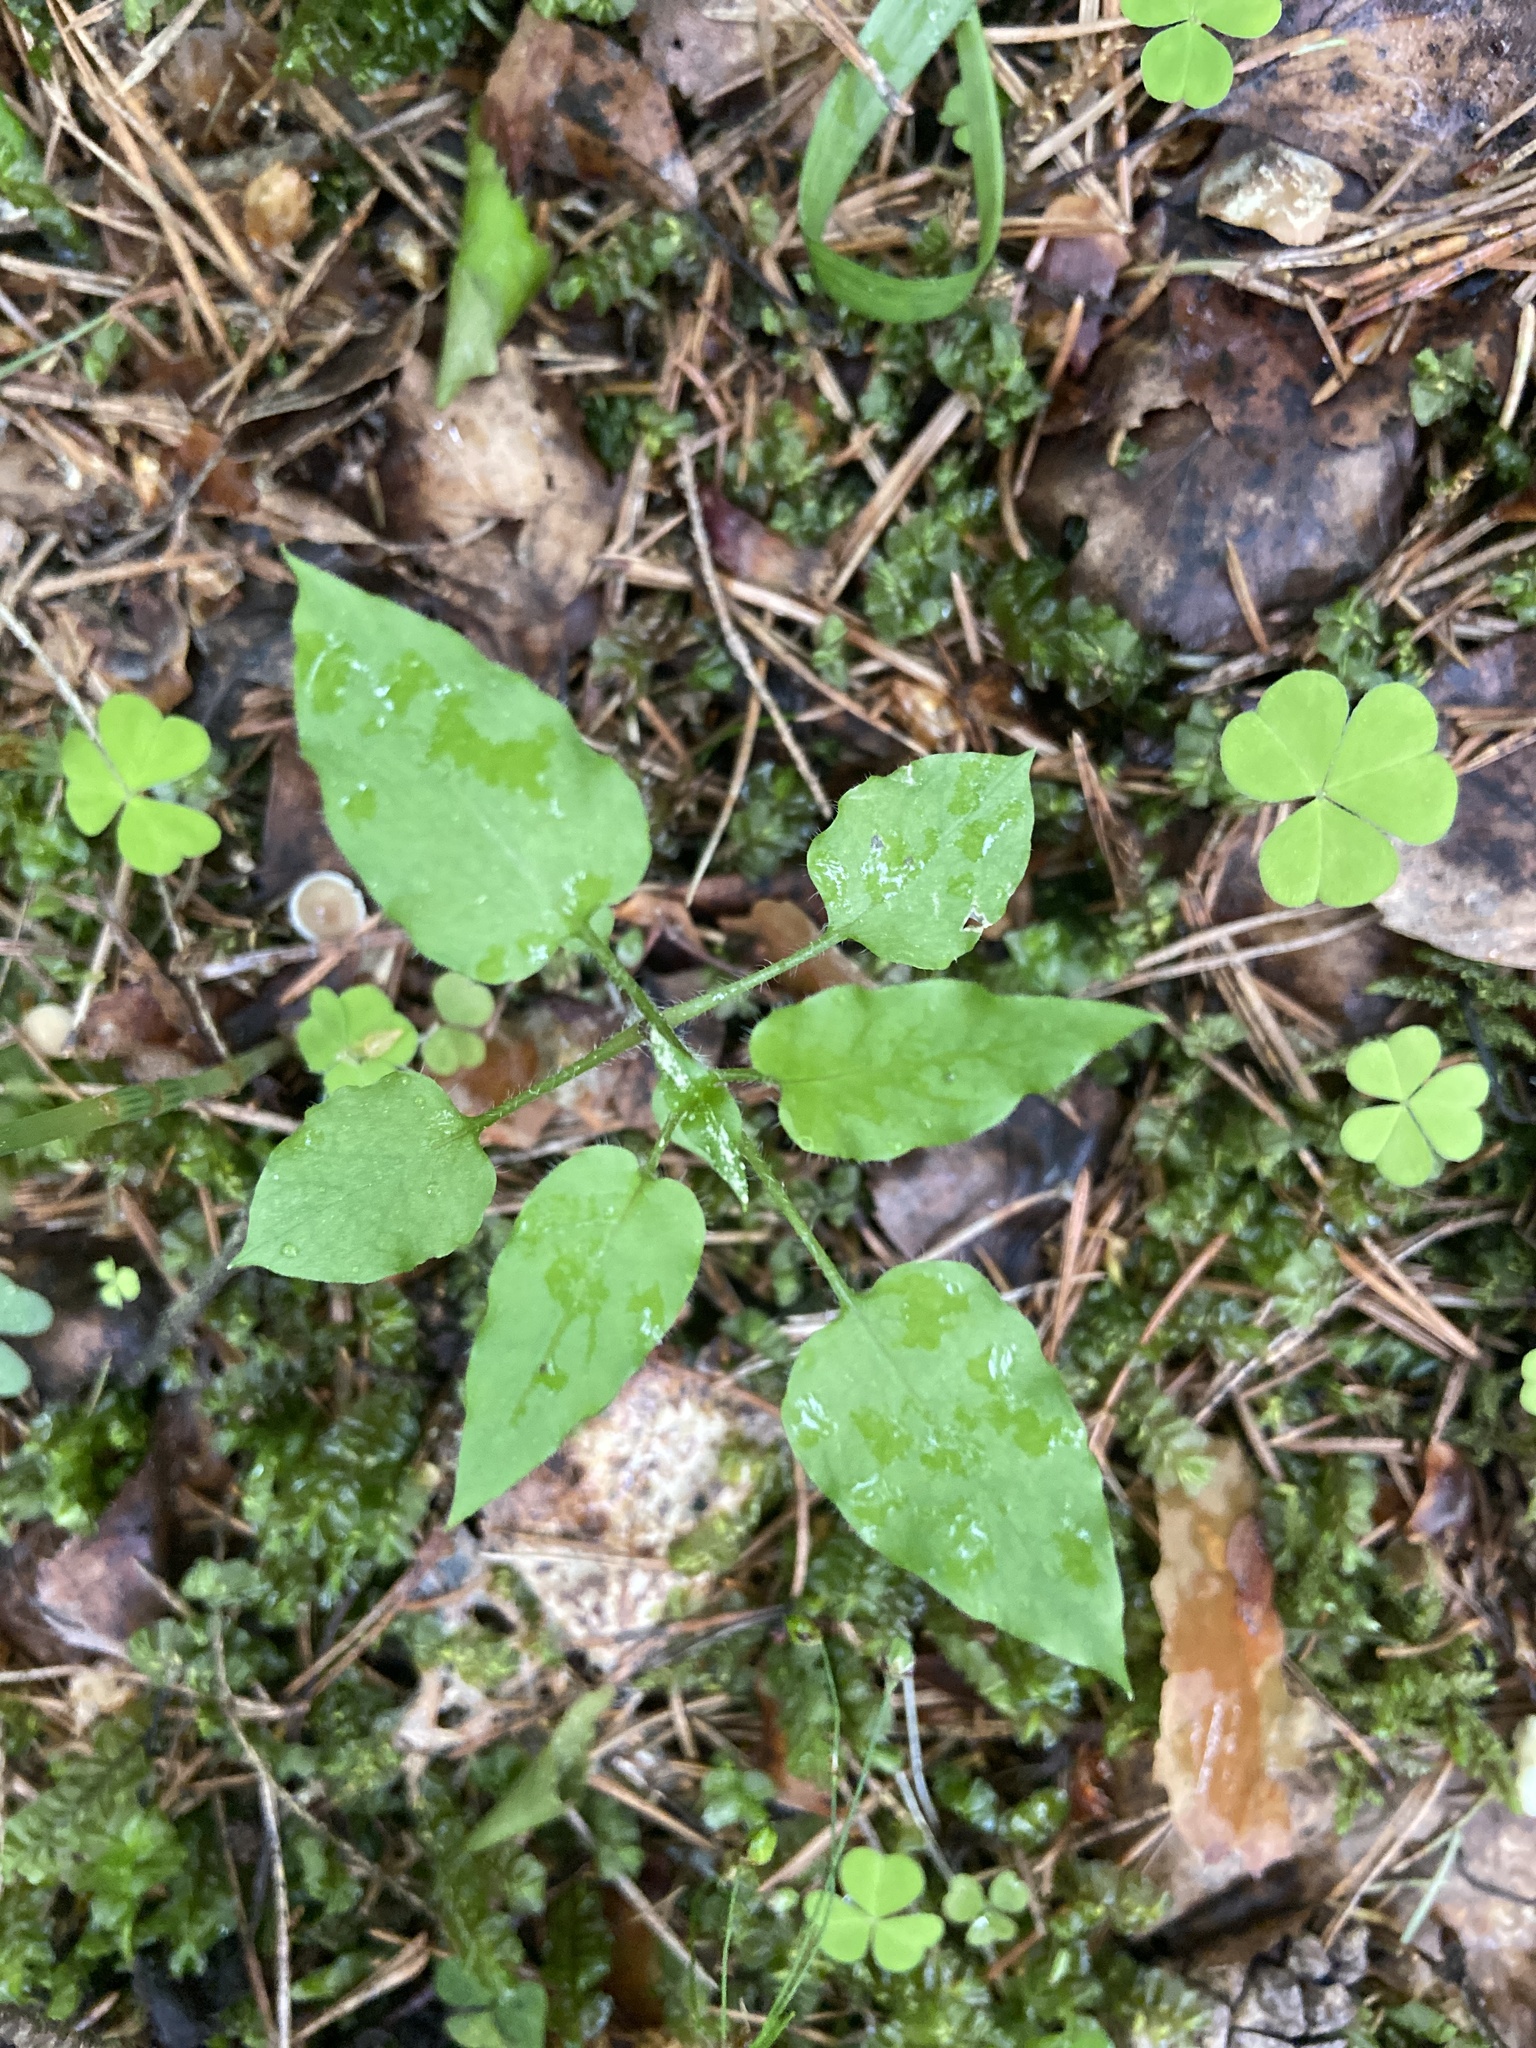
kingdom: Plantae
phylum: Tracheophyta
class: Magnoliopsida
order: Caryophyllales
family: Caryophyllaceae
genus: Stellaria
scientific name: Stellaria nemorum
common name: Wood stitchwort
